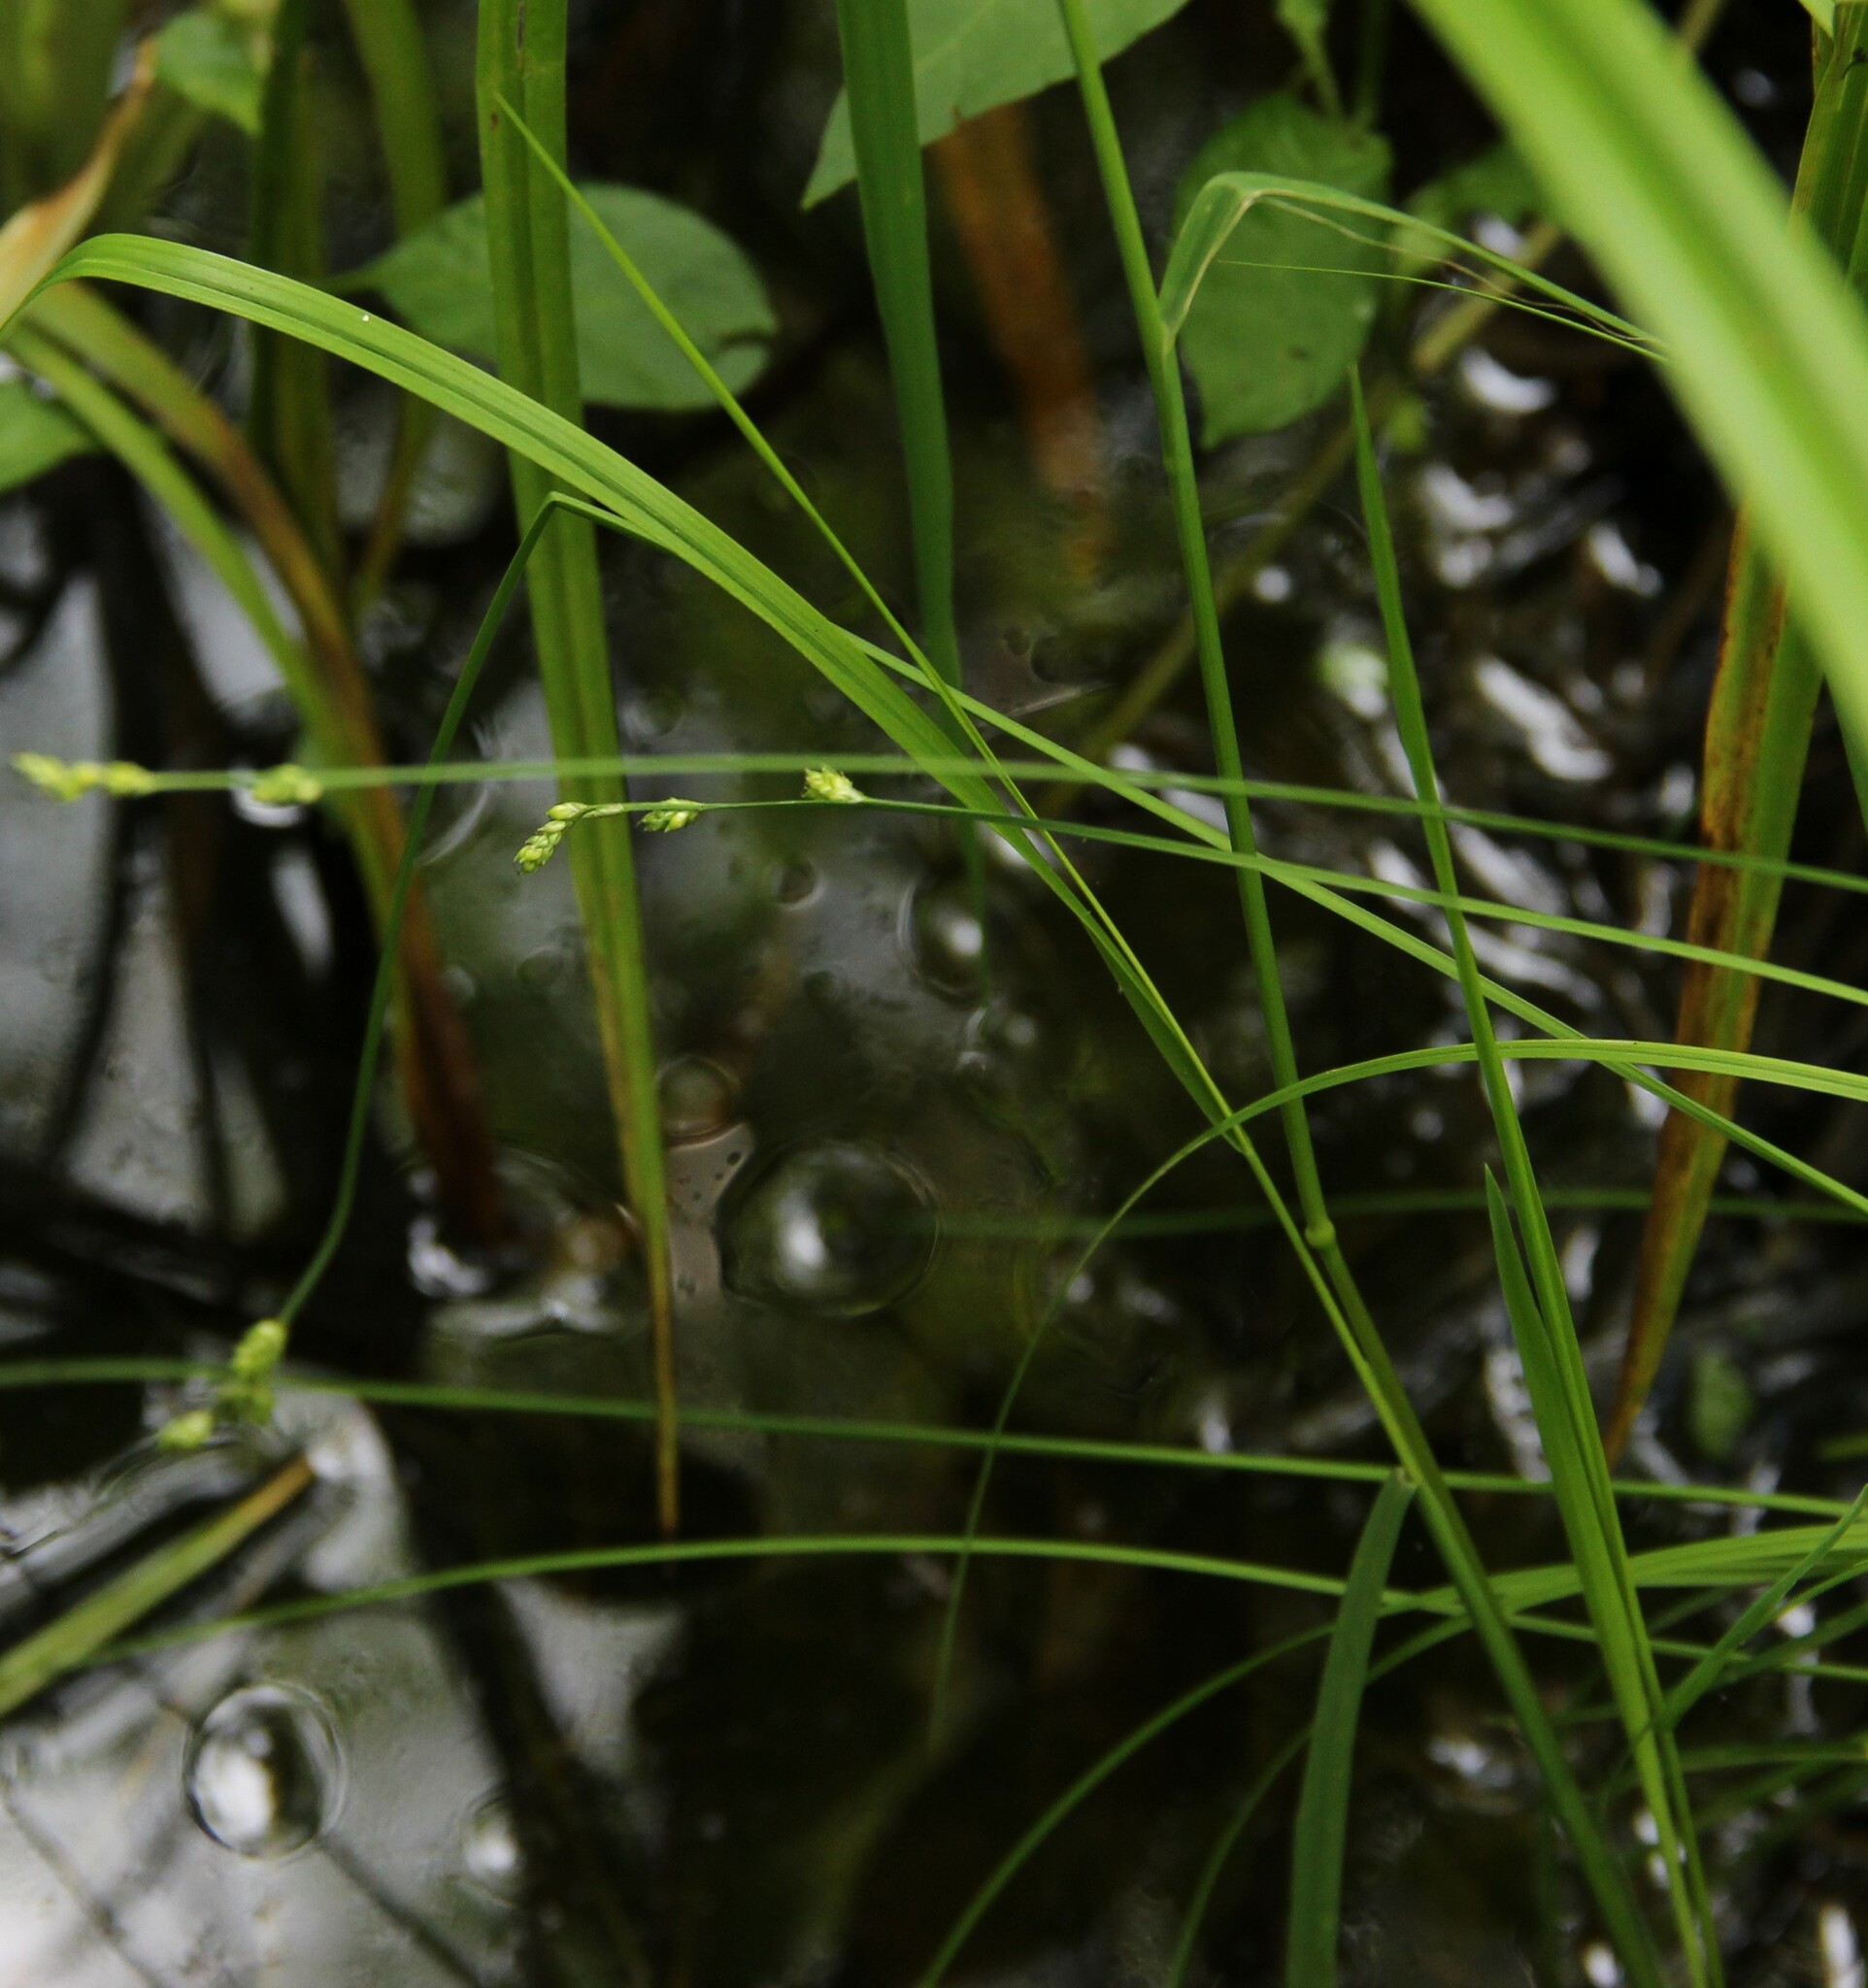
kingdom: Plantae
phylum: Tracheophyta
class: Liliopsida
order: Poales
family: Cyperaceae
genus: Carex
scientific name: Carex elongata
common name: Elongated sedge
